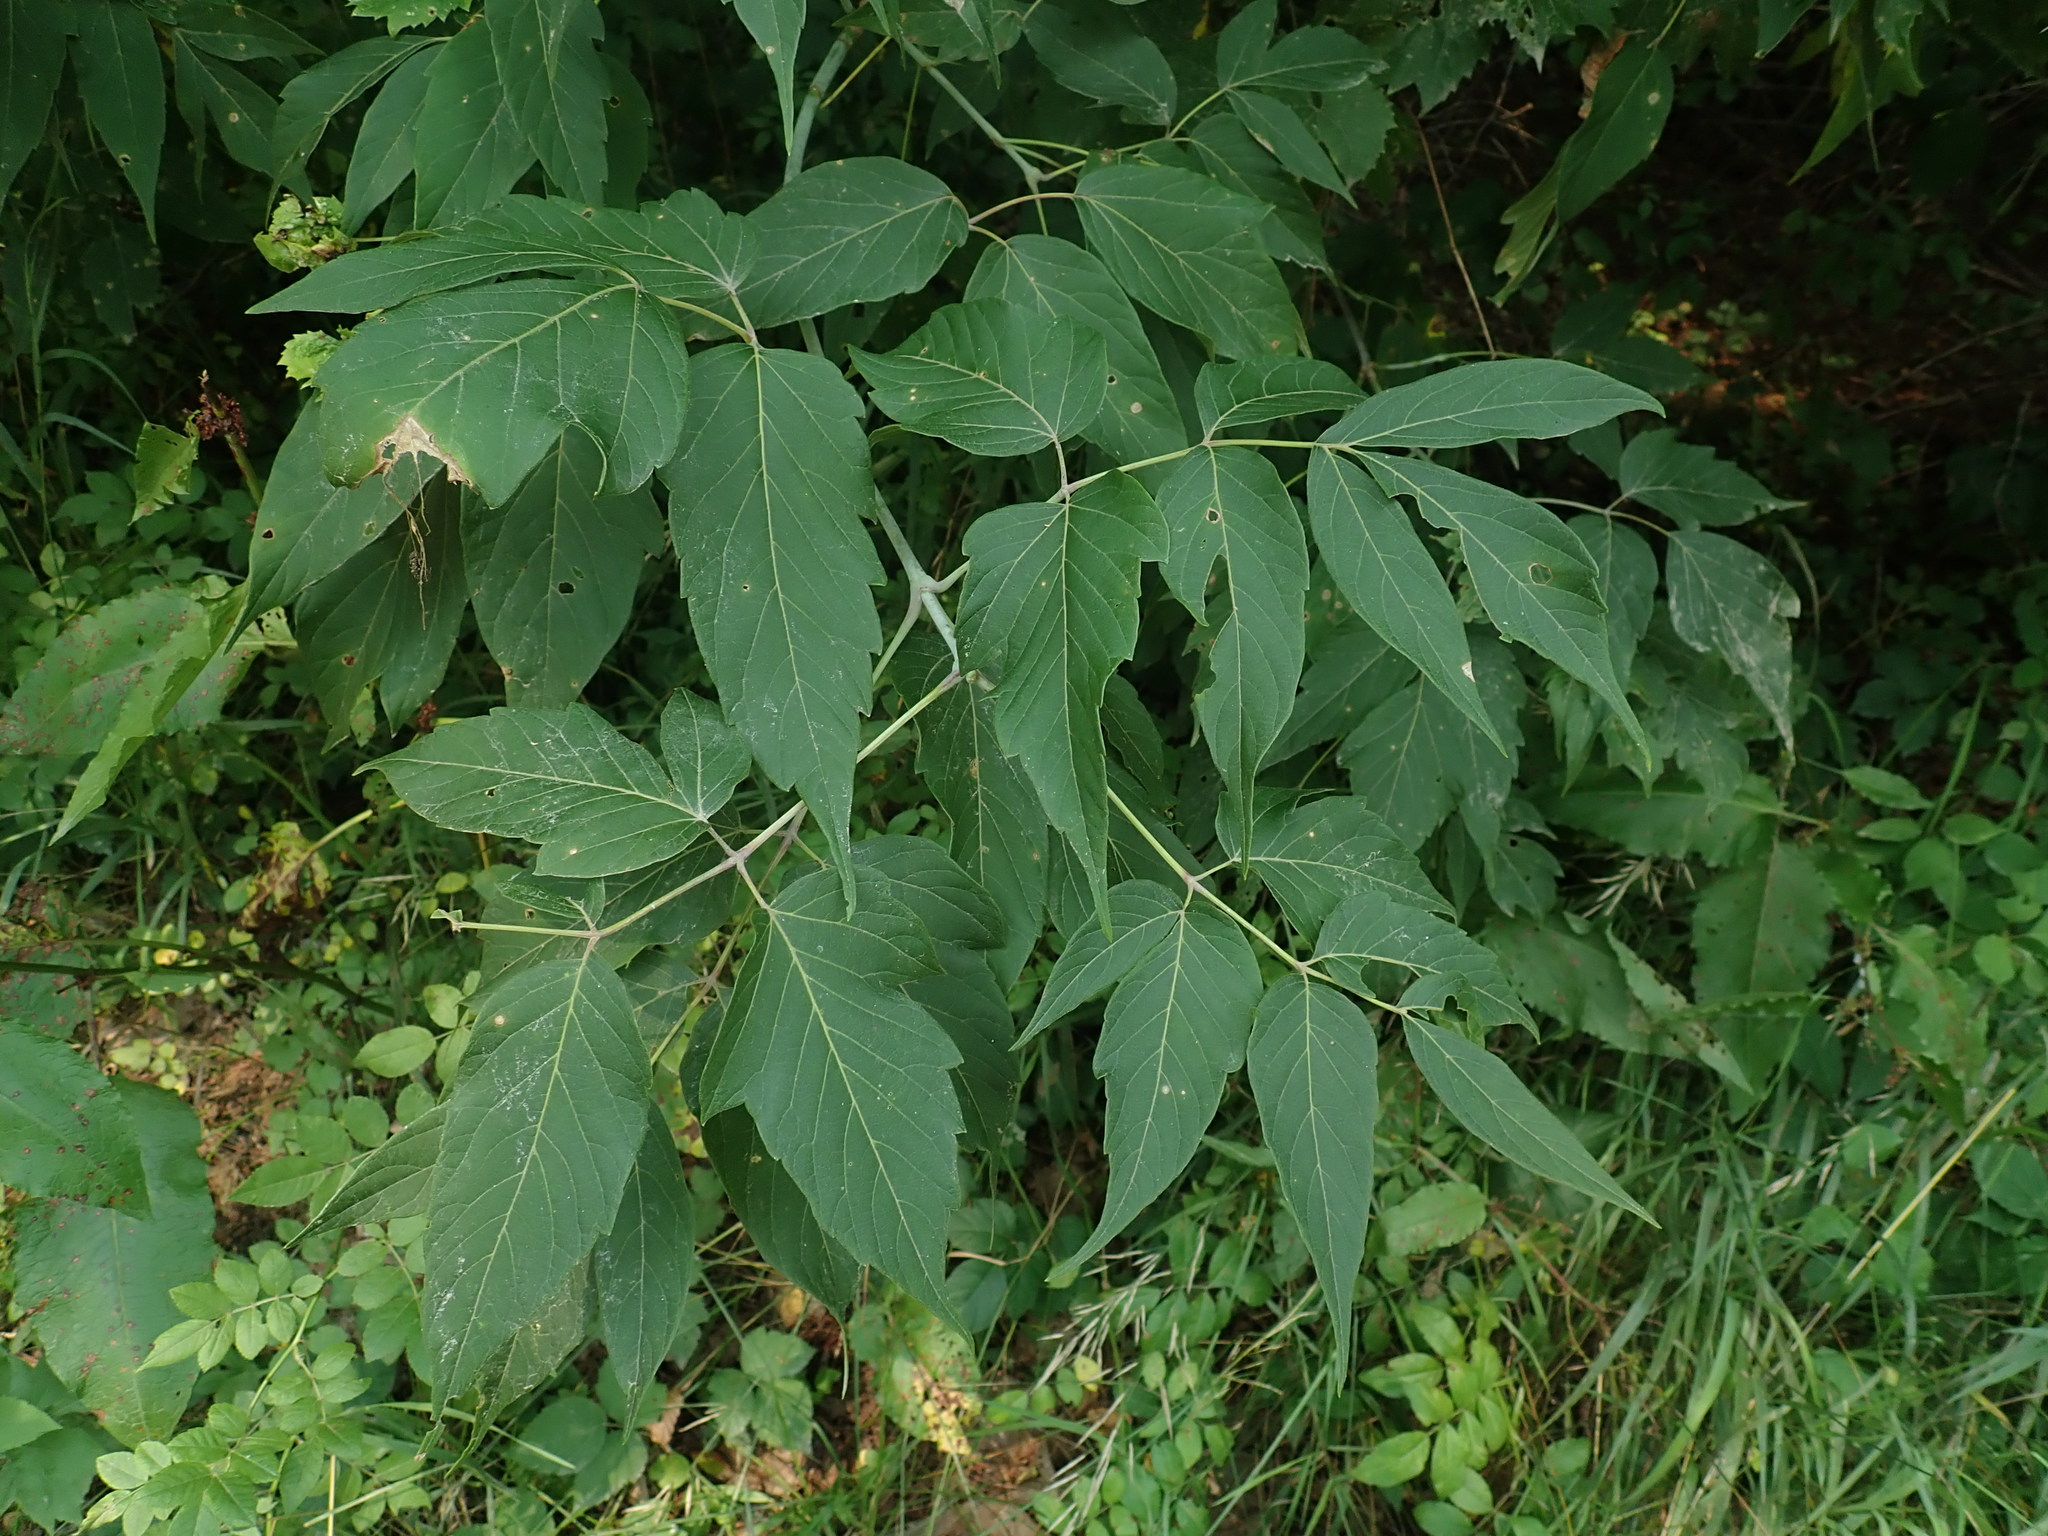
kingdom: Plantae
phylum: Tracheophyta
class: Magnoliopsida
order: Sapindales
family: Sapindaceae
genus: Acer
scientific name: Acer negundo
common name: Ashleaf maple
